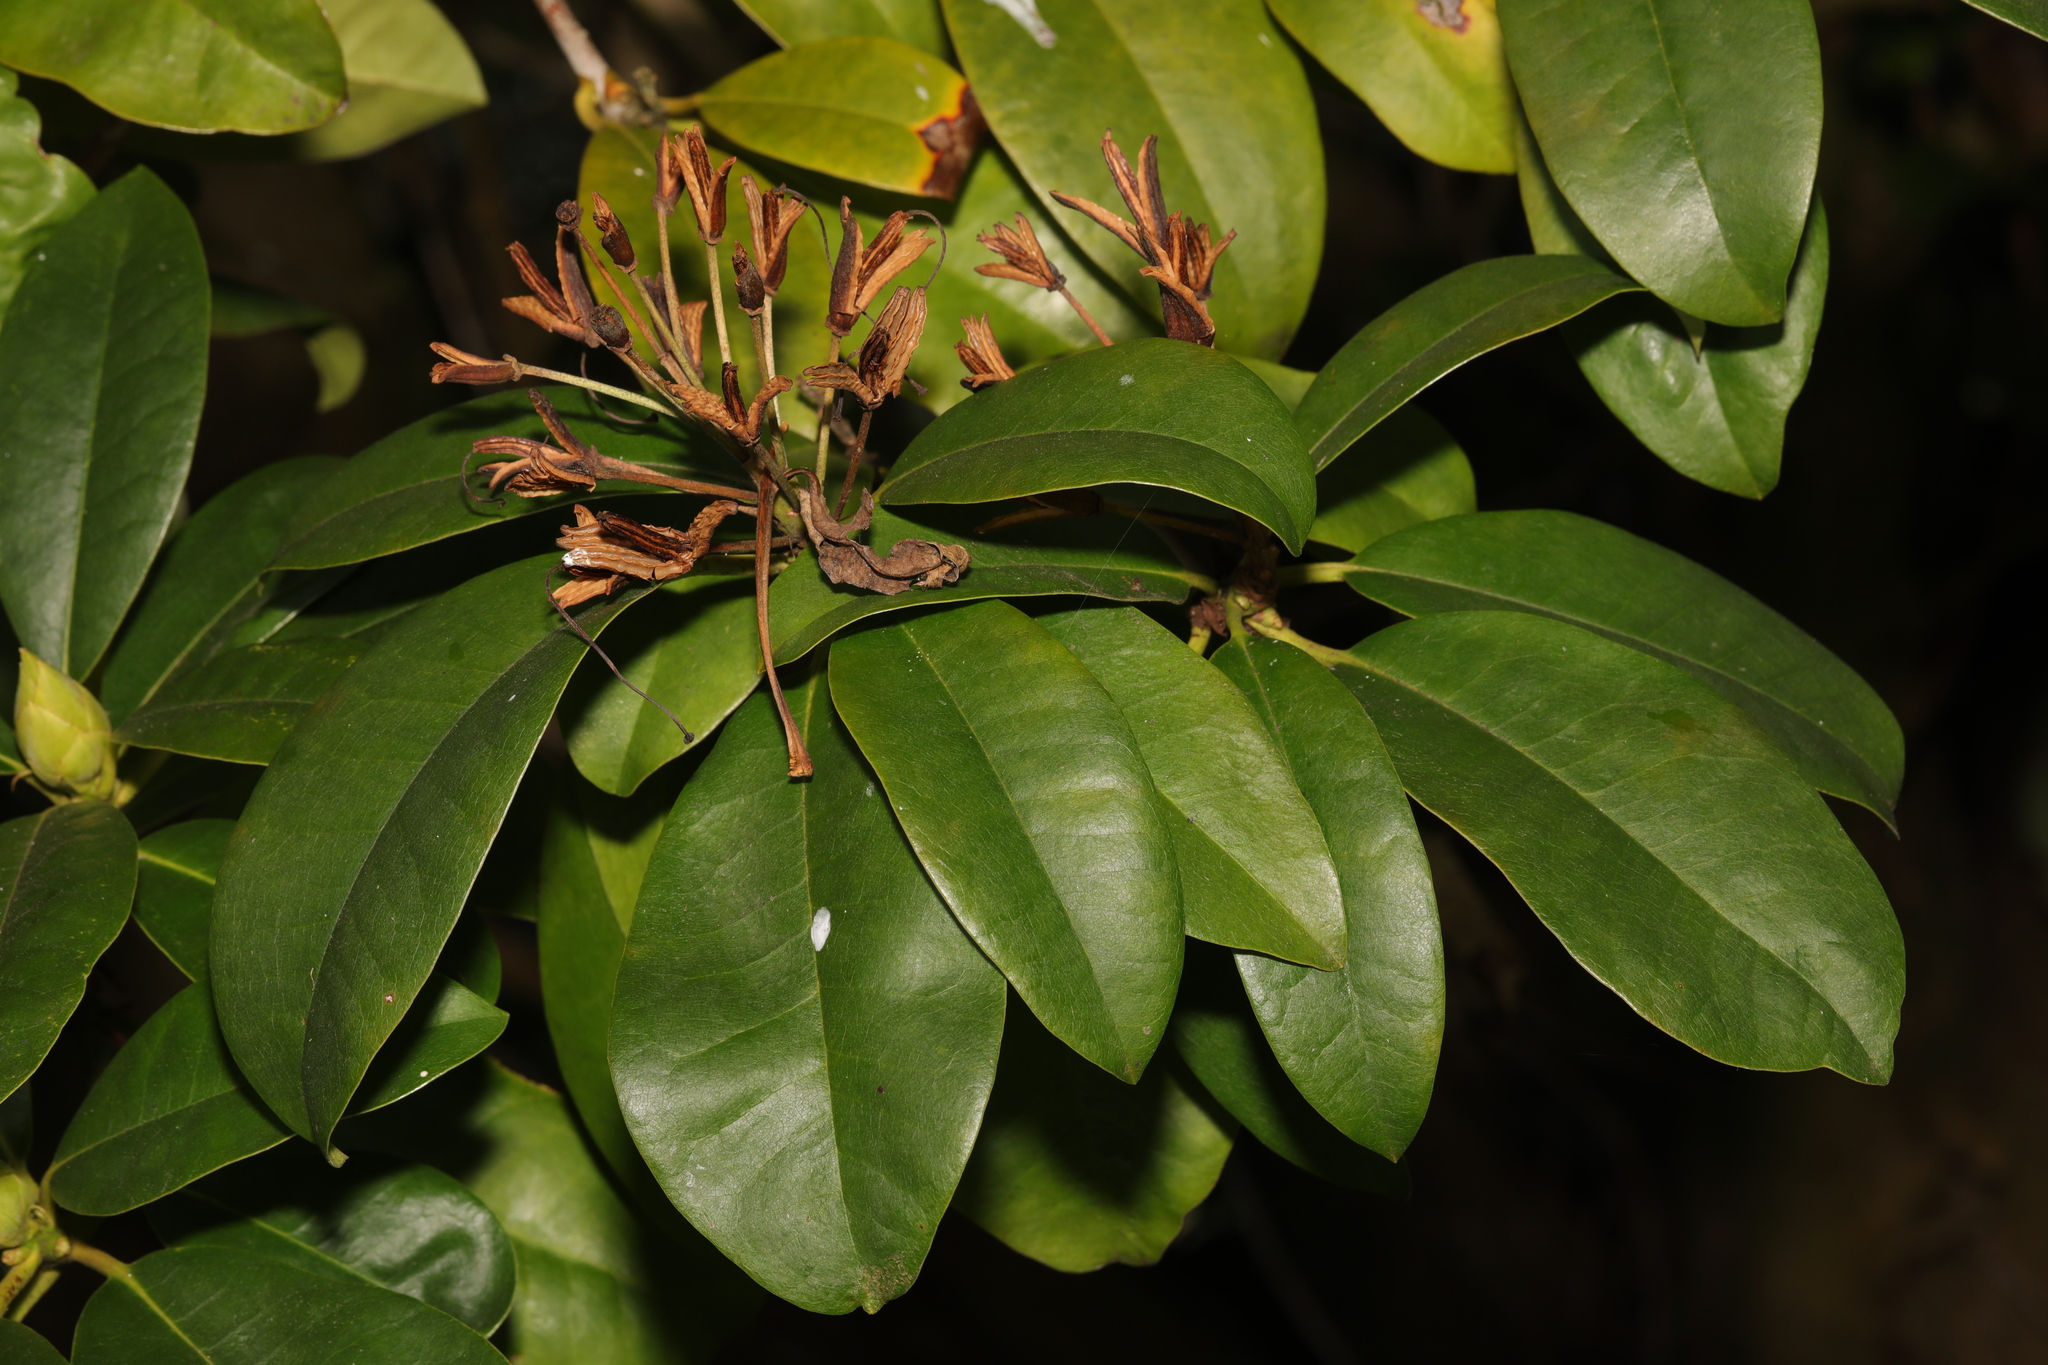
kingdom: Plantae
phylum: Tracheophyta
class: Magnoliopsida
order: Ericales
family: Ericaceae
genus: Rhododendron
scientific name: Rhododendron ponticum
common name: Rhododendron
